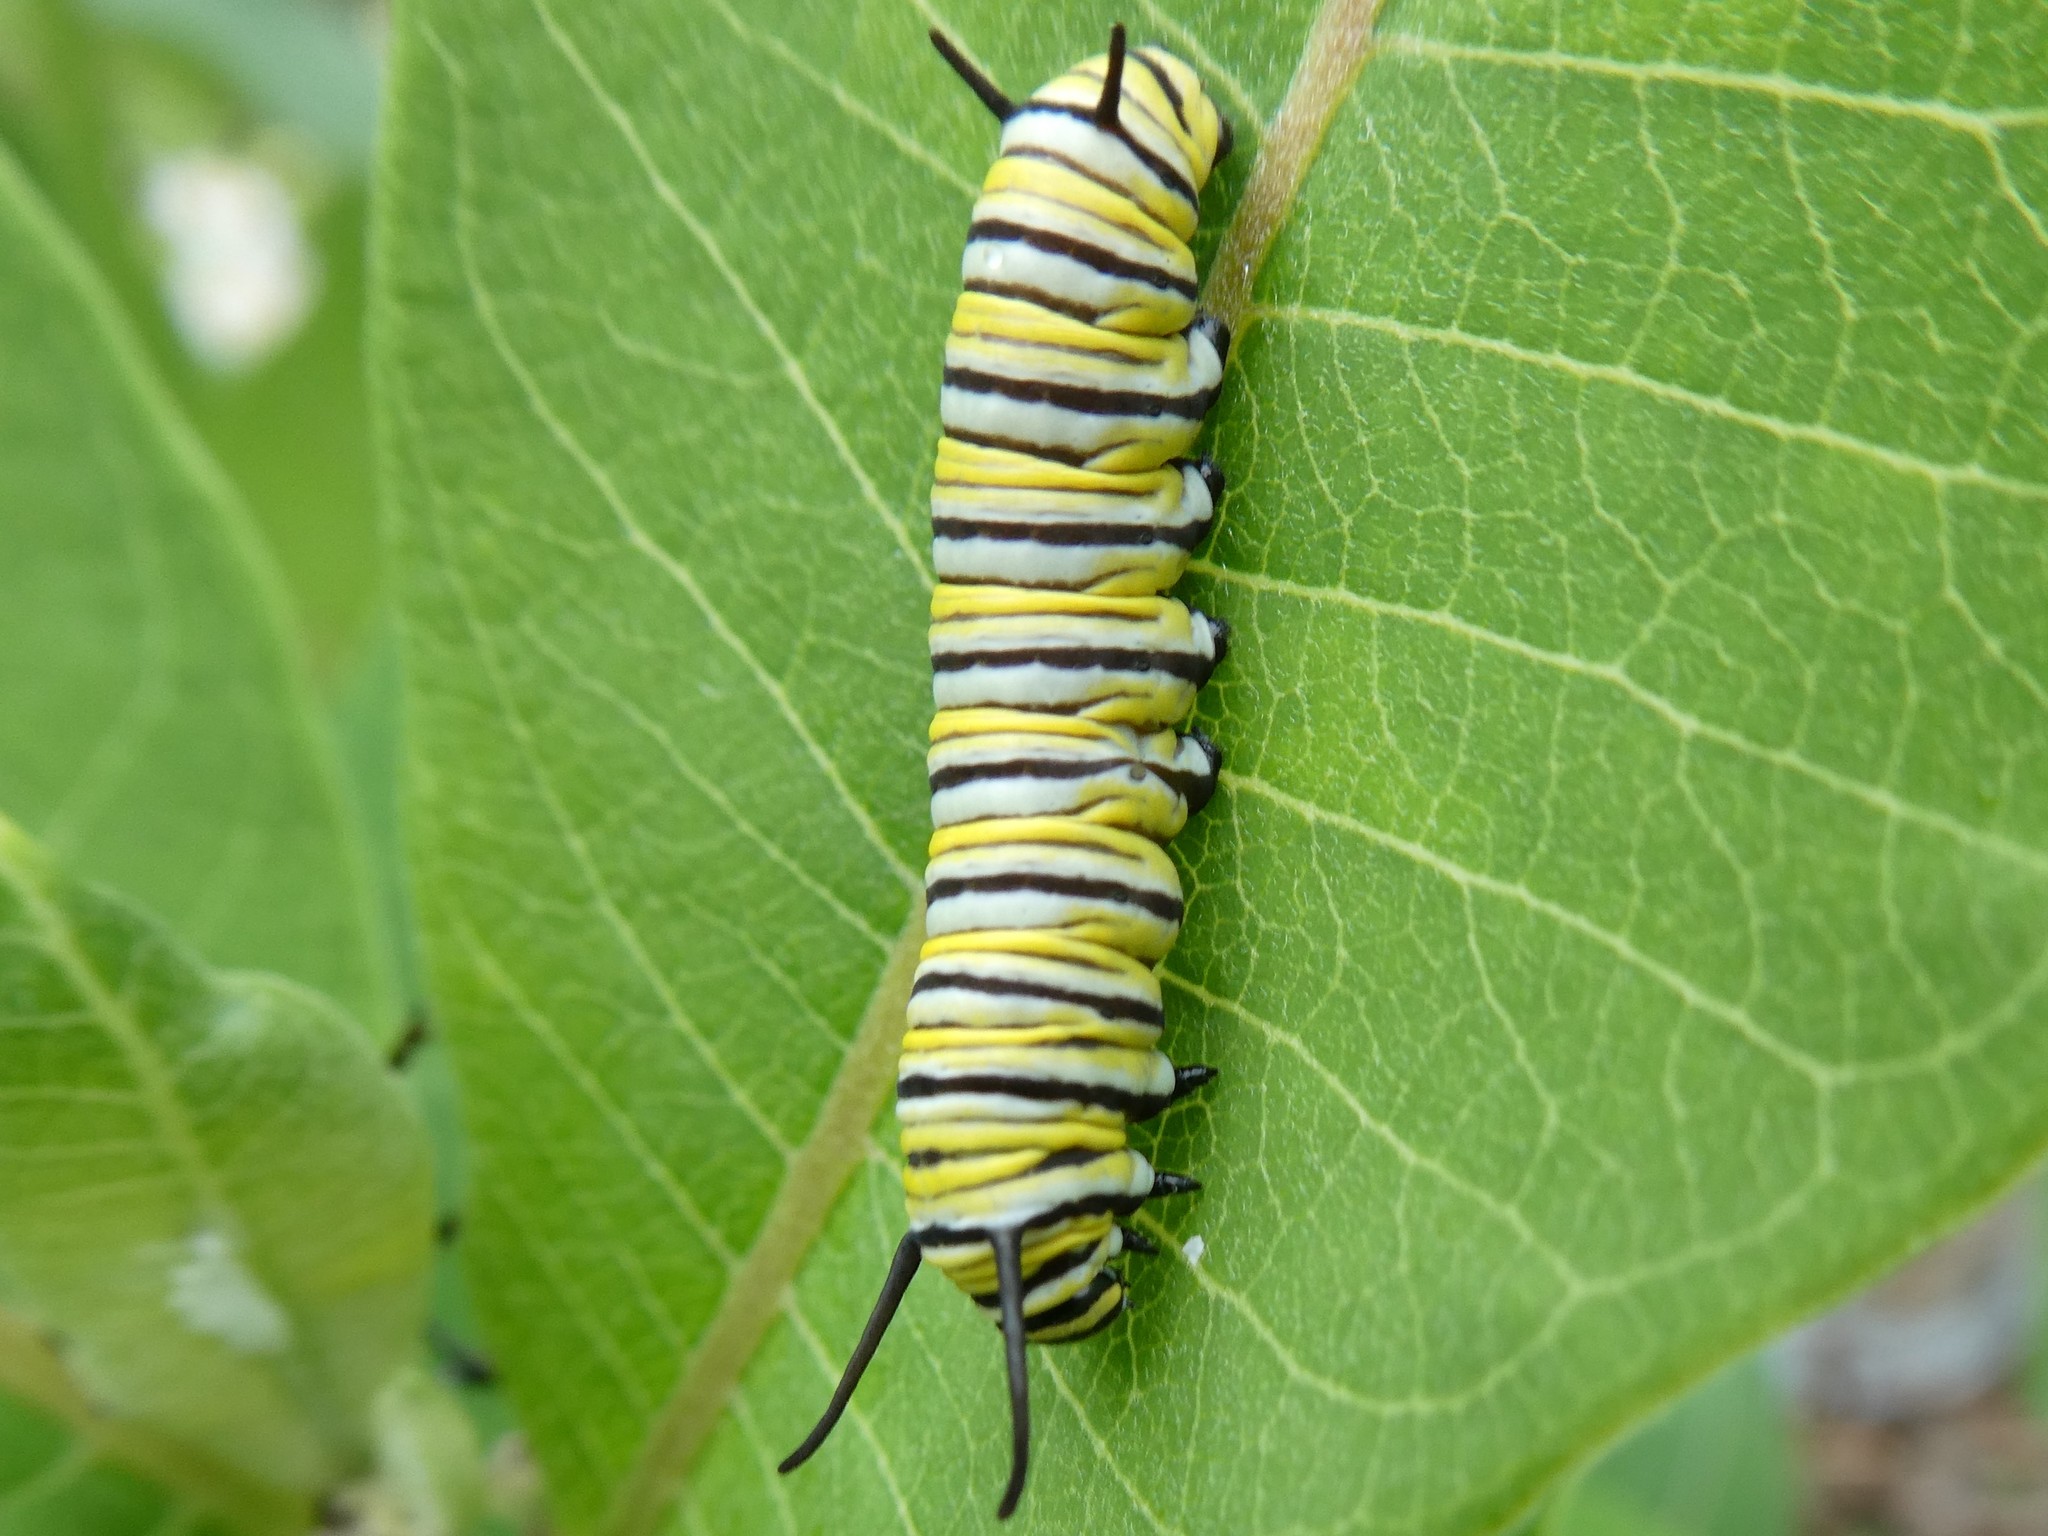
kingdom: Animalia
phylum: Arthropoda
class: Insecta
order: Lepidoptera
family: Nymphalidae
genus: Danaus
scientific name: Danaus plexippus
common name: Monarch
